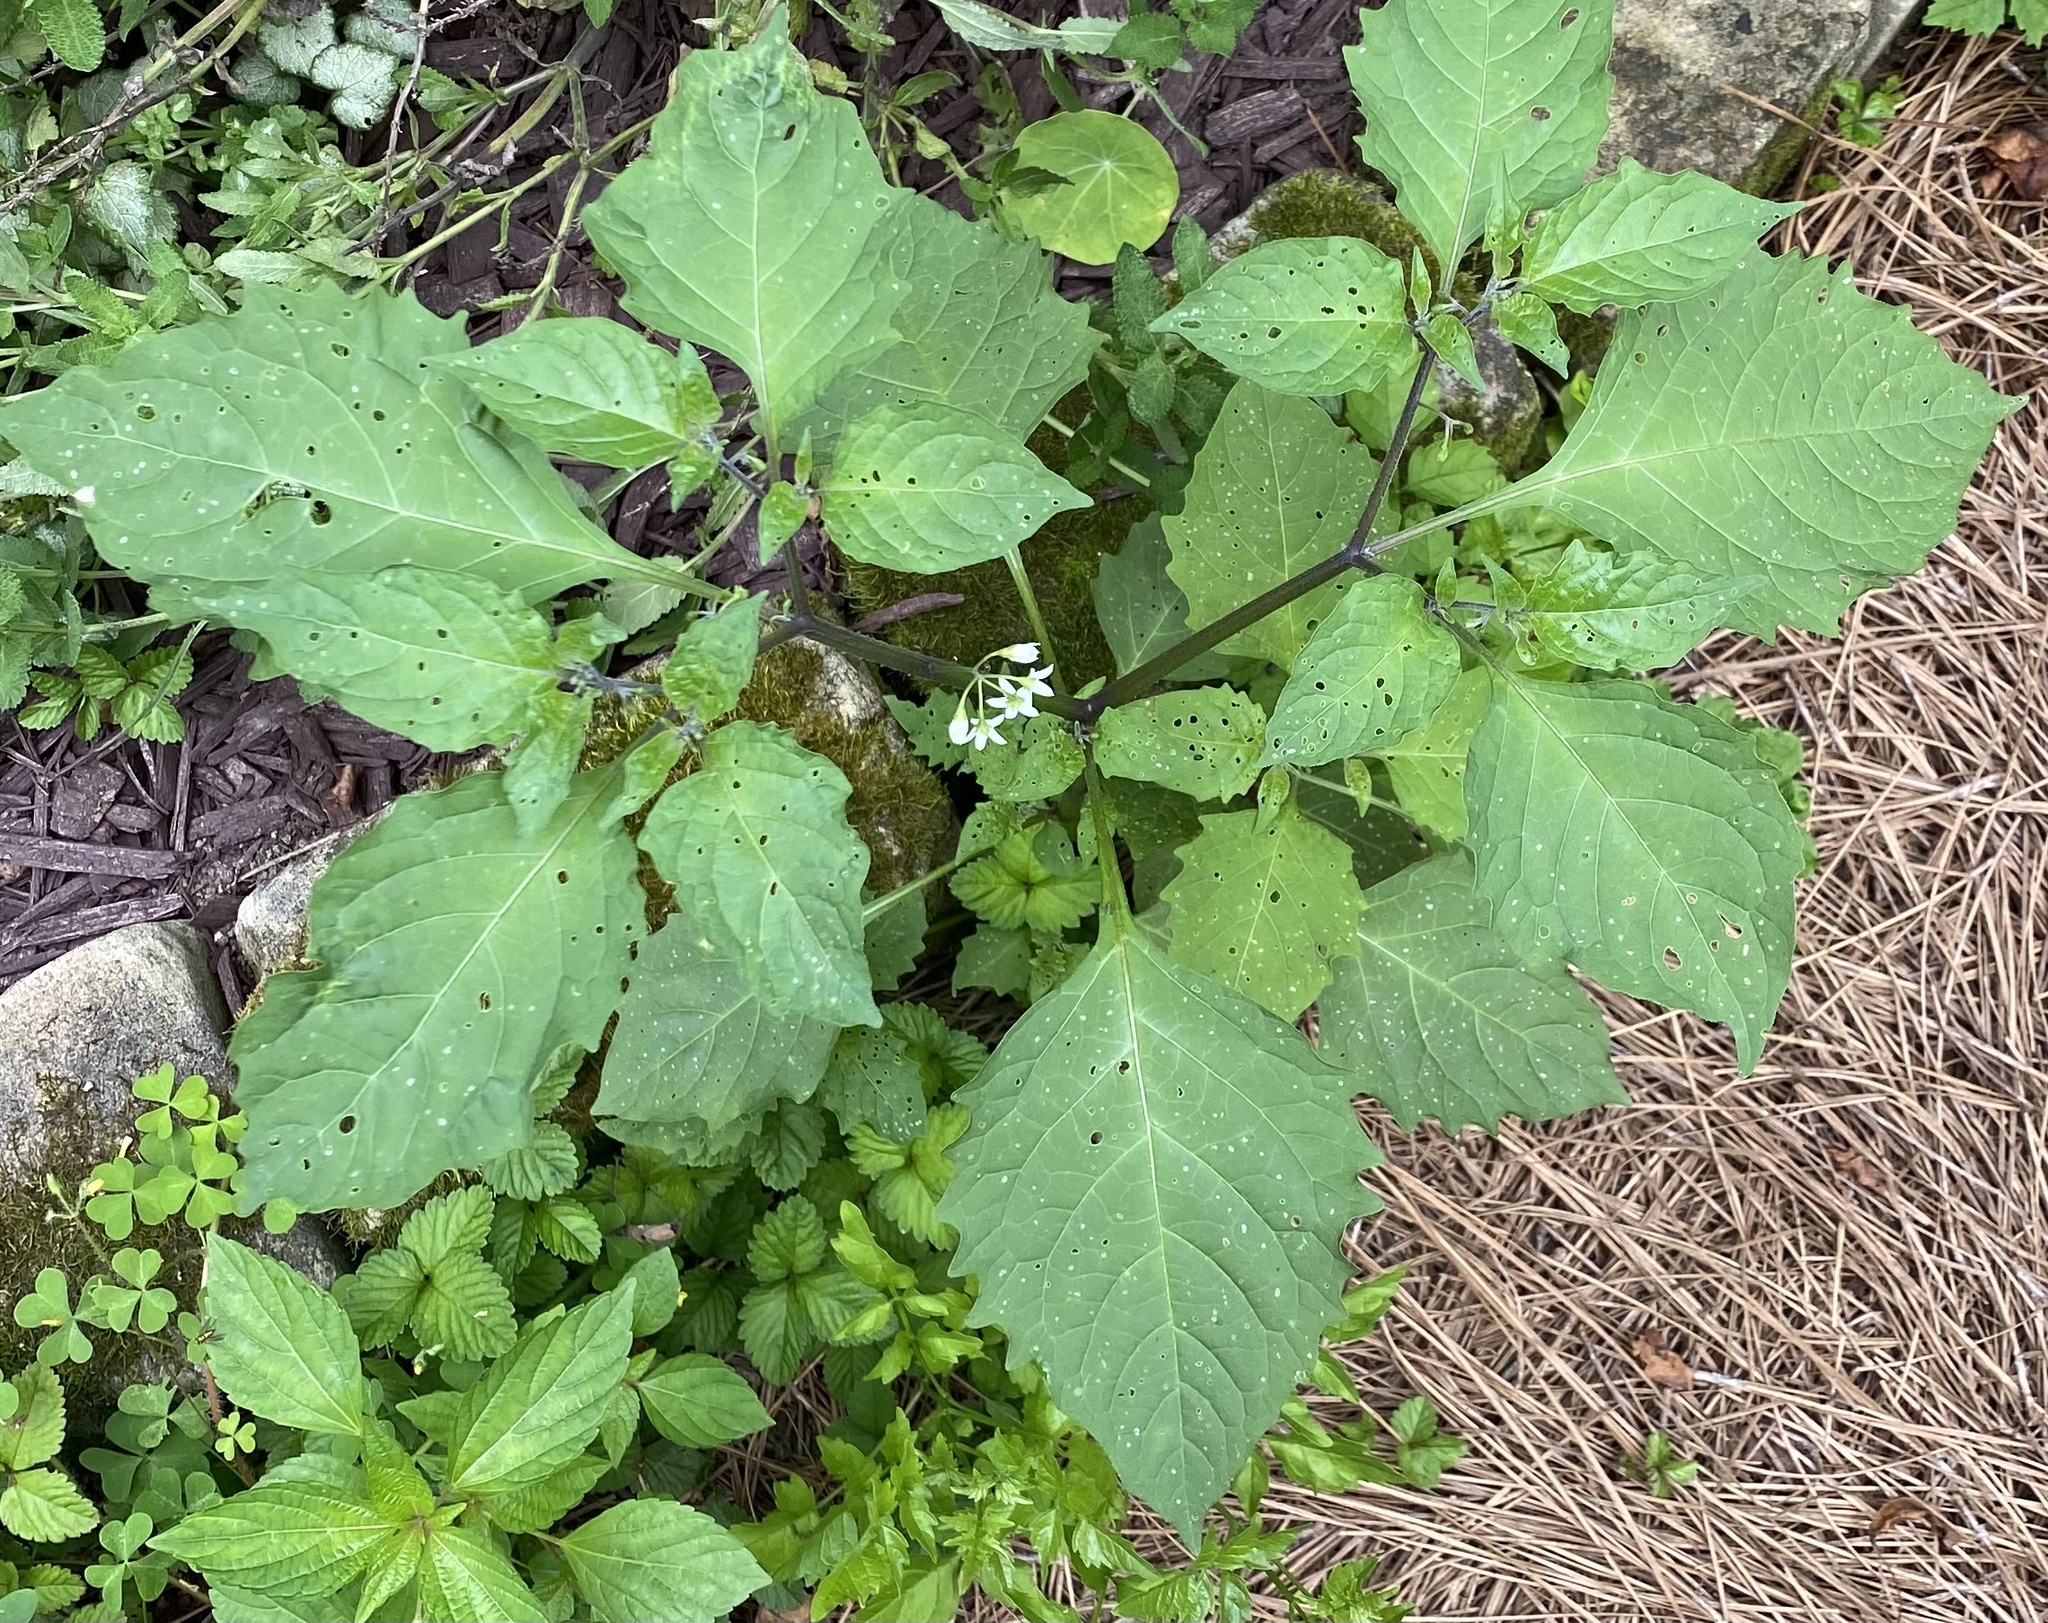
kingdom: Plantae
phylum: Tracheophyta
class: Magnoliopsida
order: Solanales
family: Solanaceae
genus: Solanum
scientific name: Solanum emulans
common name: Eastern black nightshade
